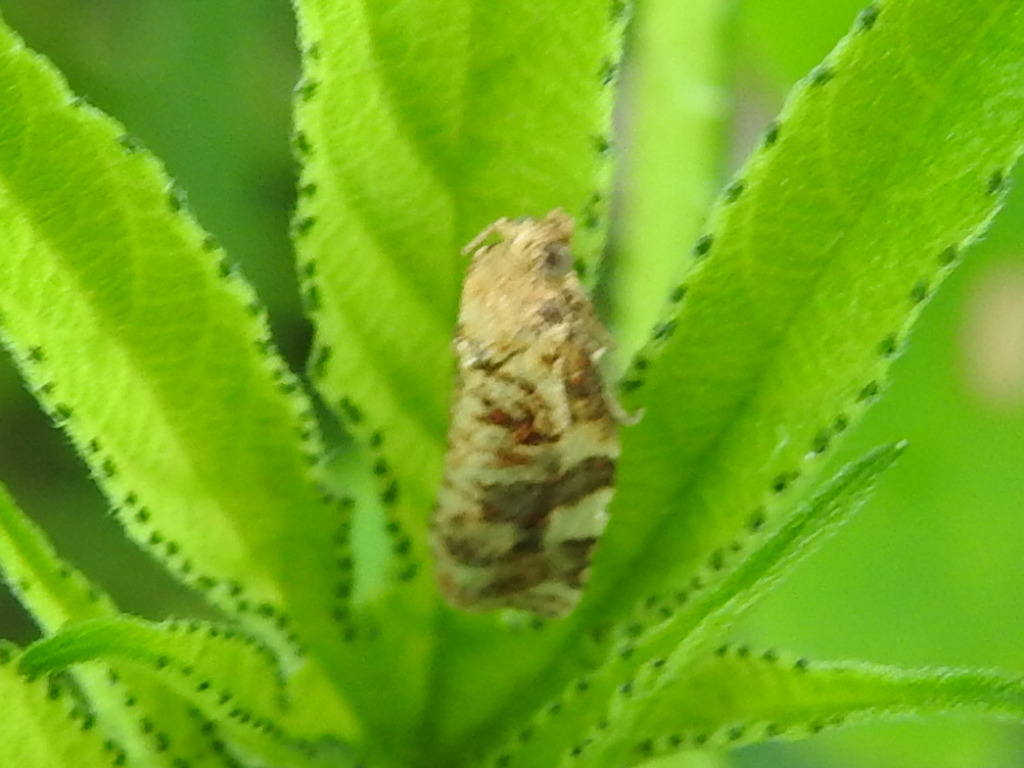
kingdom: Animalia
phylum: Arthropoda
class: Insecta
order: Lepidoptera
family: Tortricidae
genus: Archips
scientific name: Archips argyrospila
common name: Fruit-tree leafroller moth
